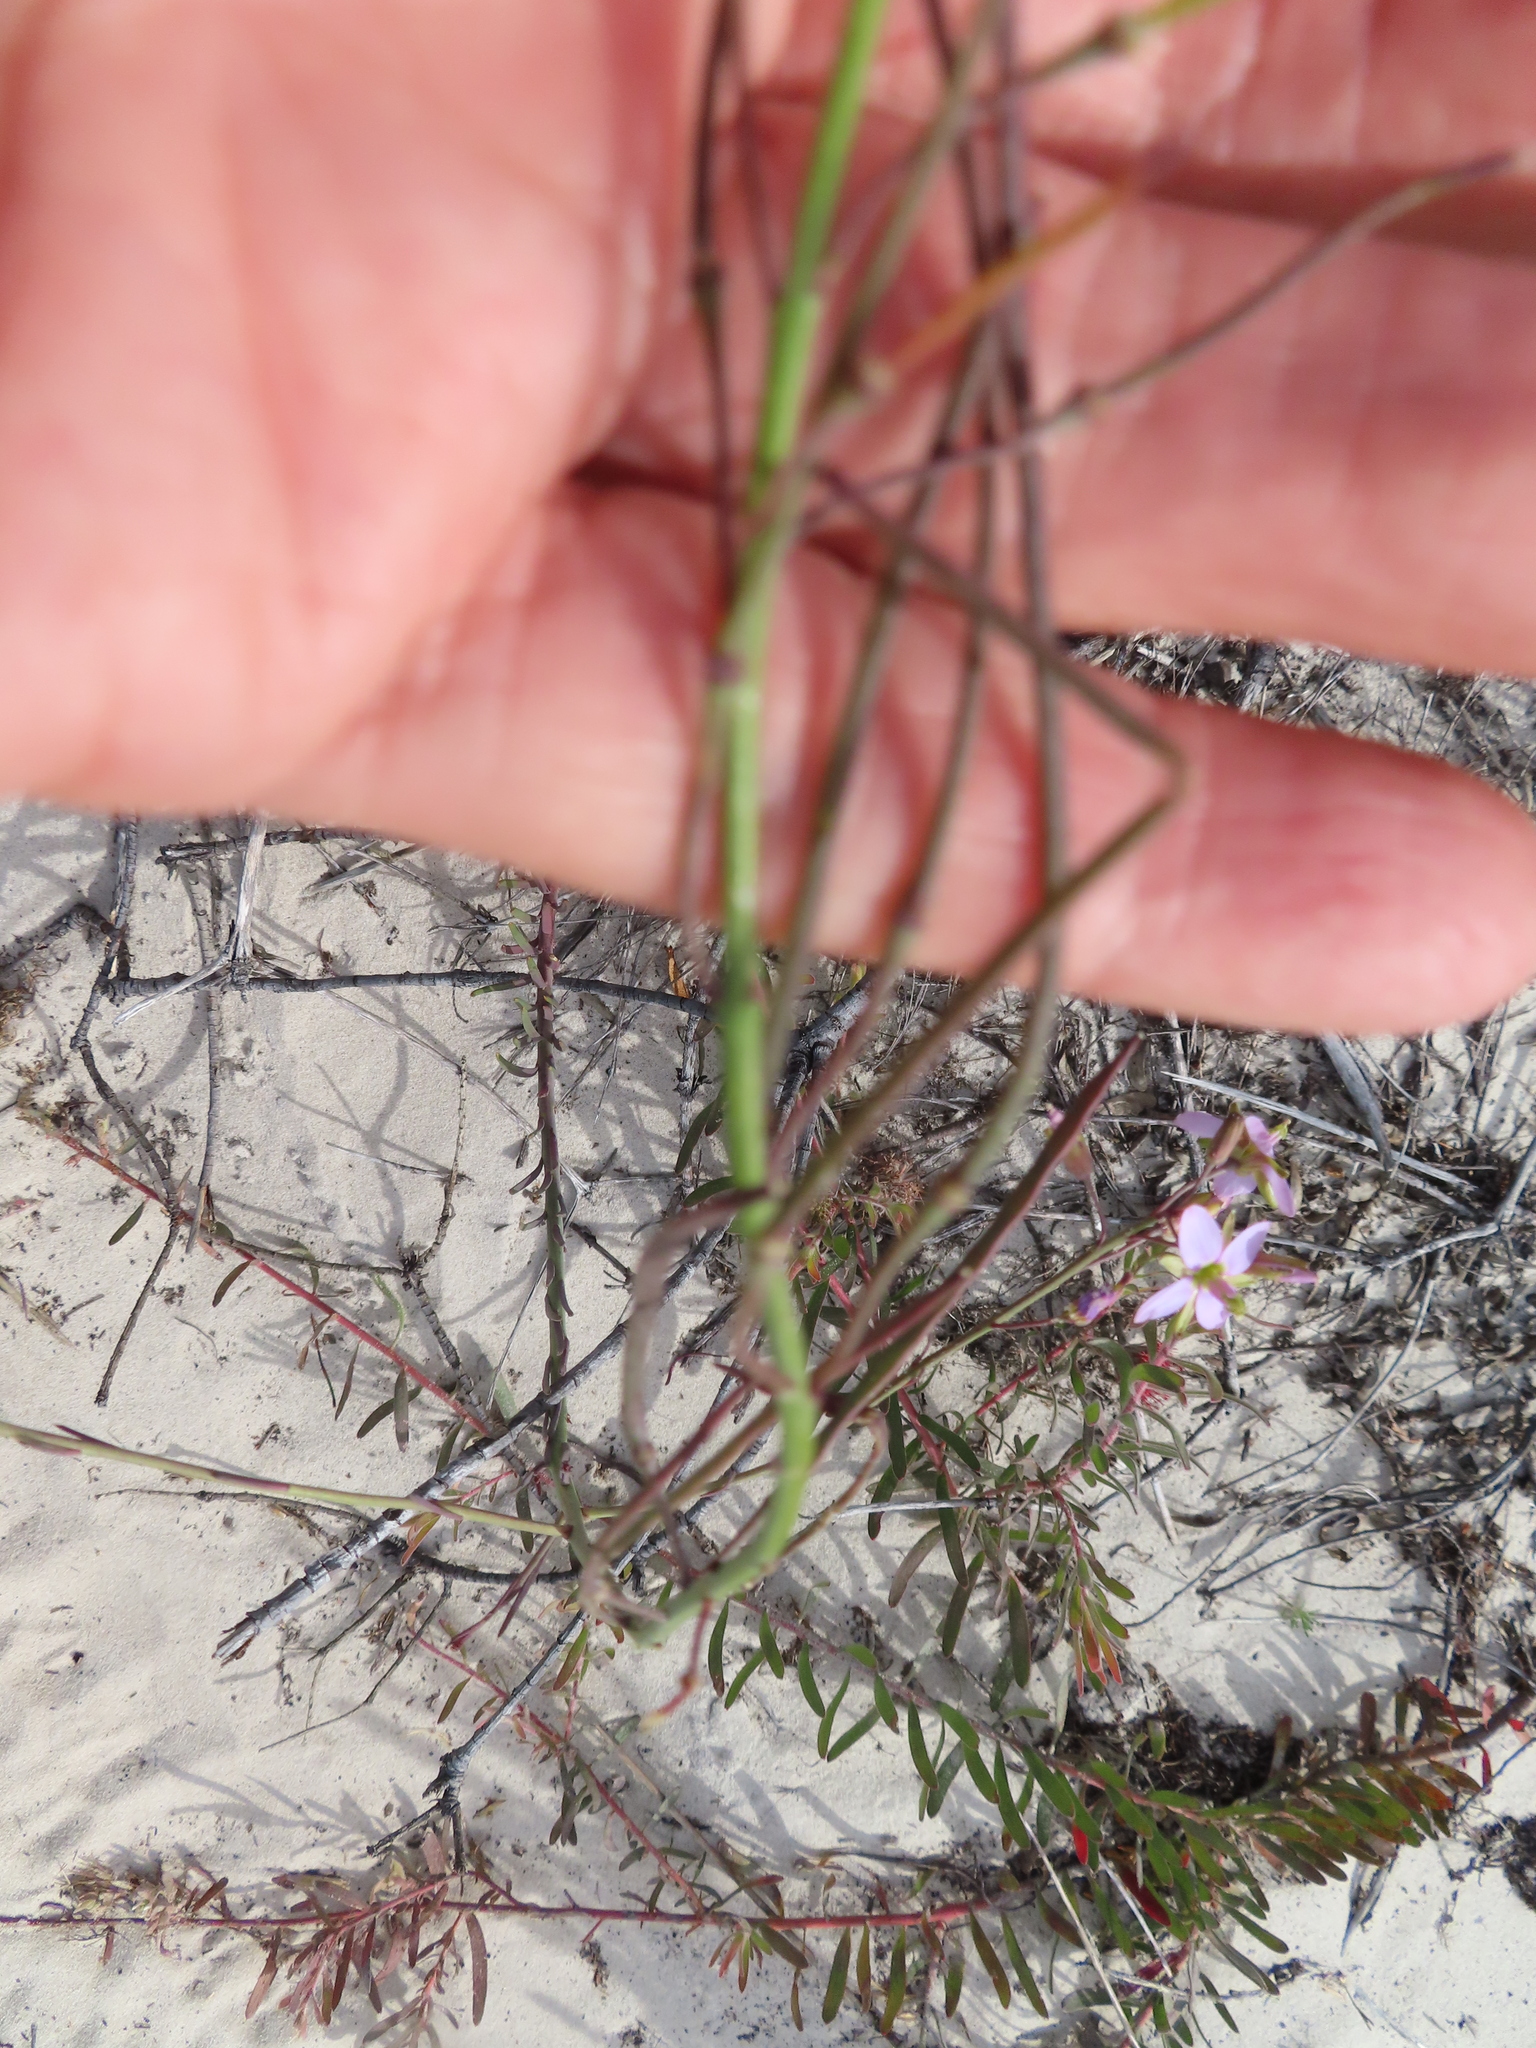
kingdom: Plantae
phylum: Tracheophyta
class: Magnoliopsida
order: Brassicales
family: Brassicaceae
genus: Heliophila
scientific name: Heliophila linearis
